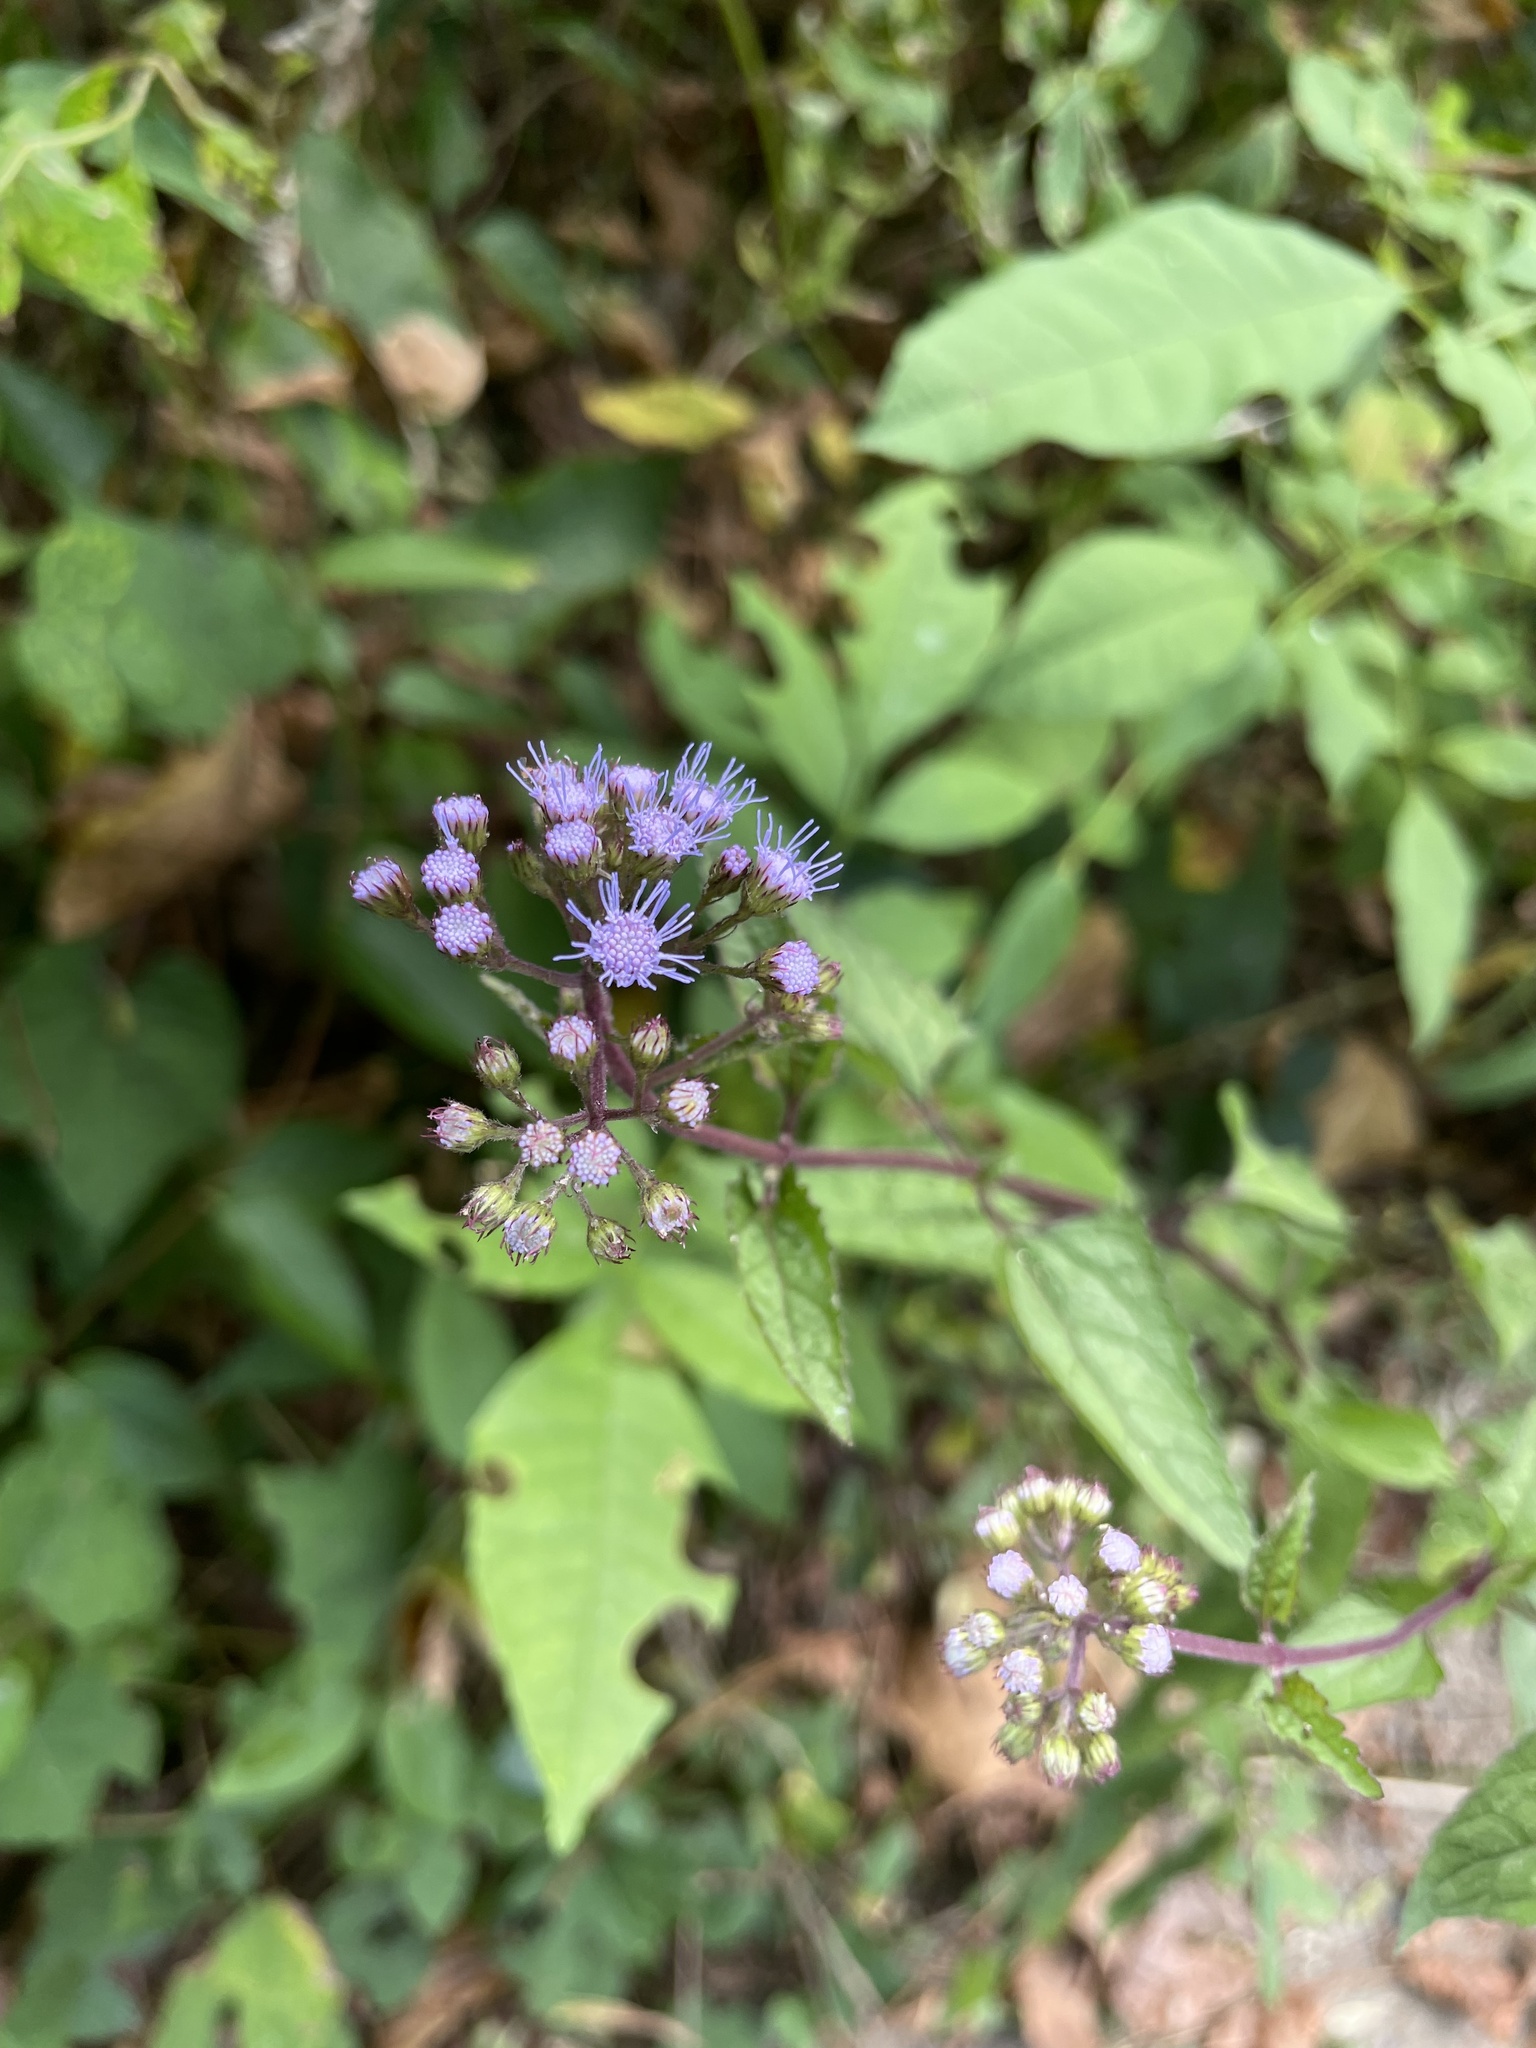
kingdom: Plantae
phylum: Tracheophyta
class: Magnoliopsida
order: Asterales
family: Asteraceae
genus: Conoclinium
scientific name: Conoclinium coelestinum
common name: Blue mistflower
